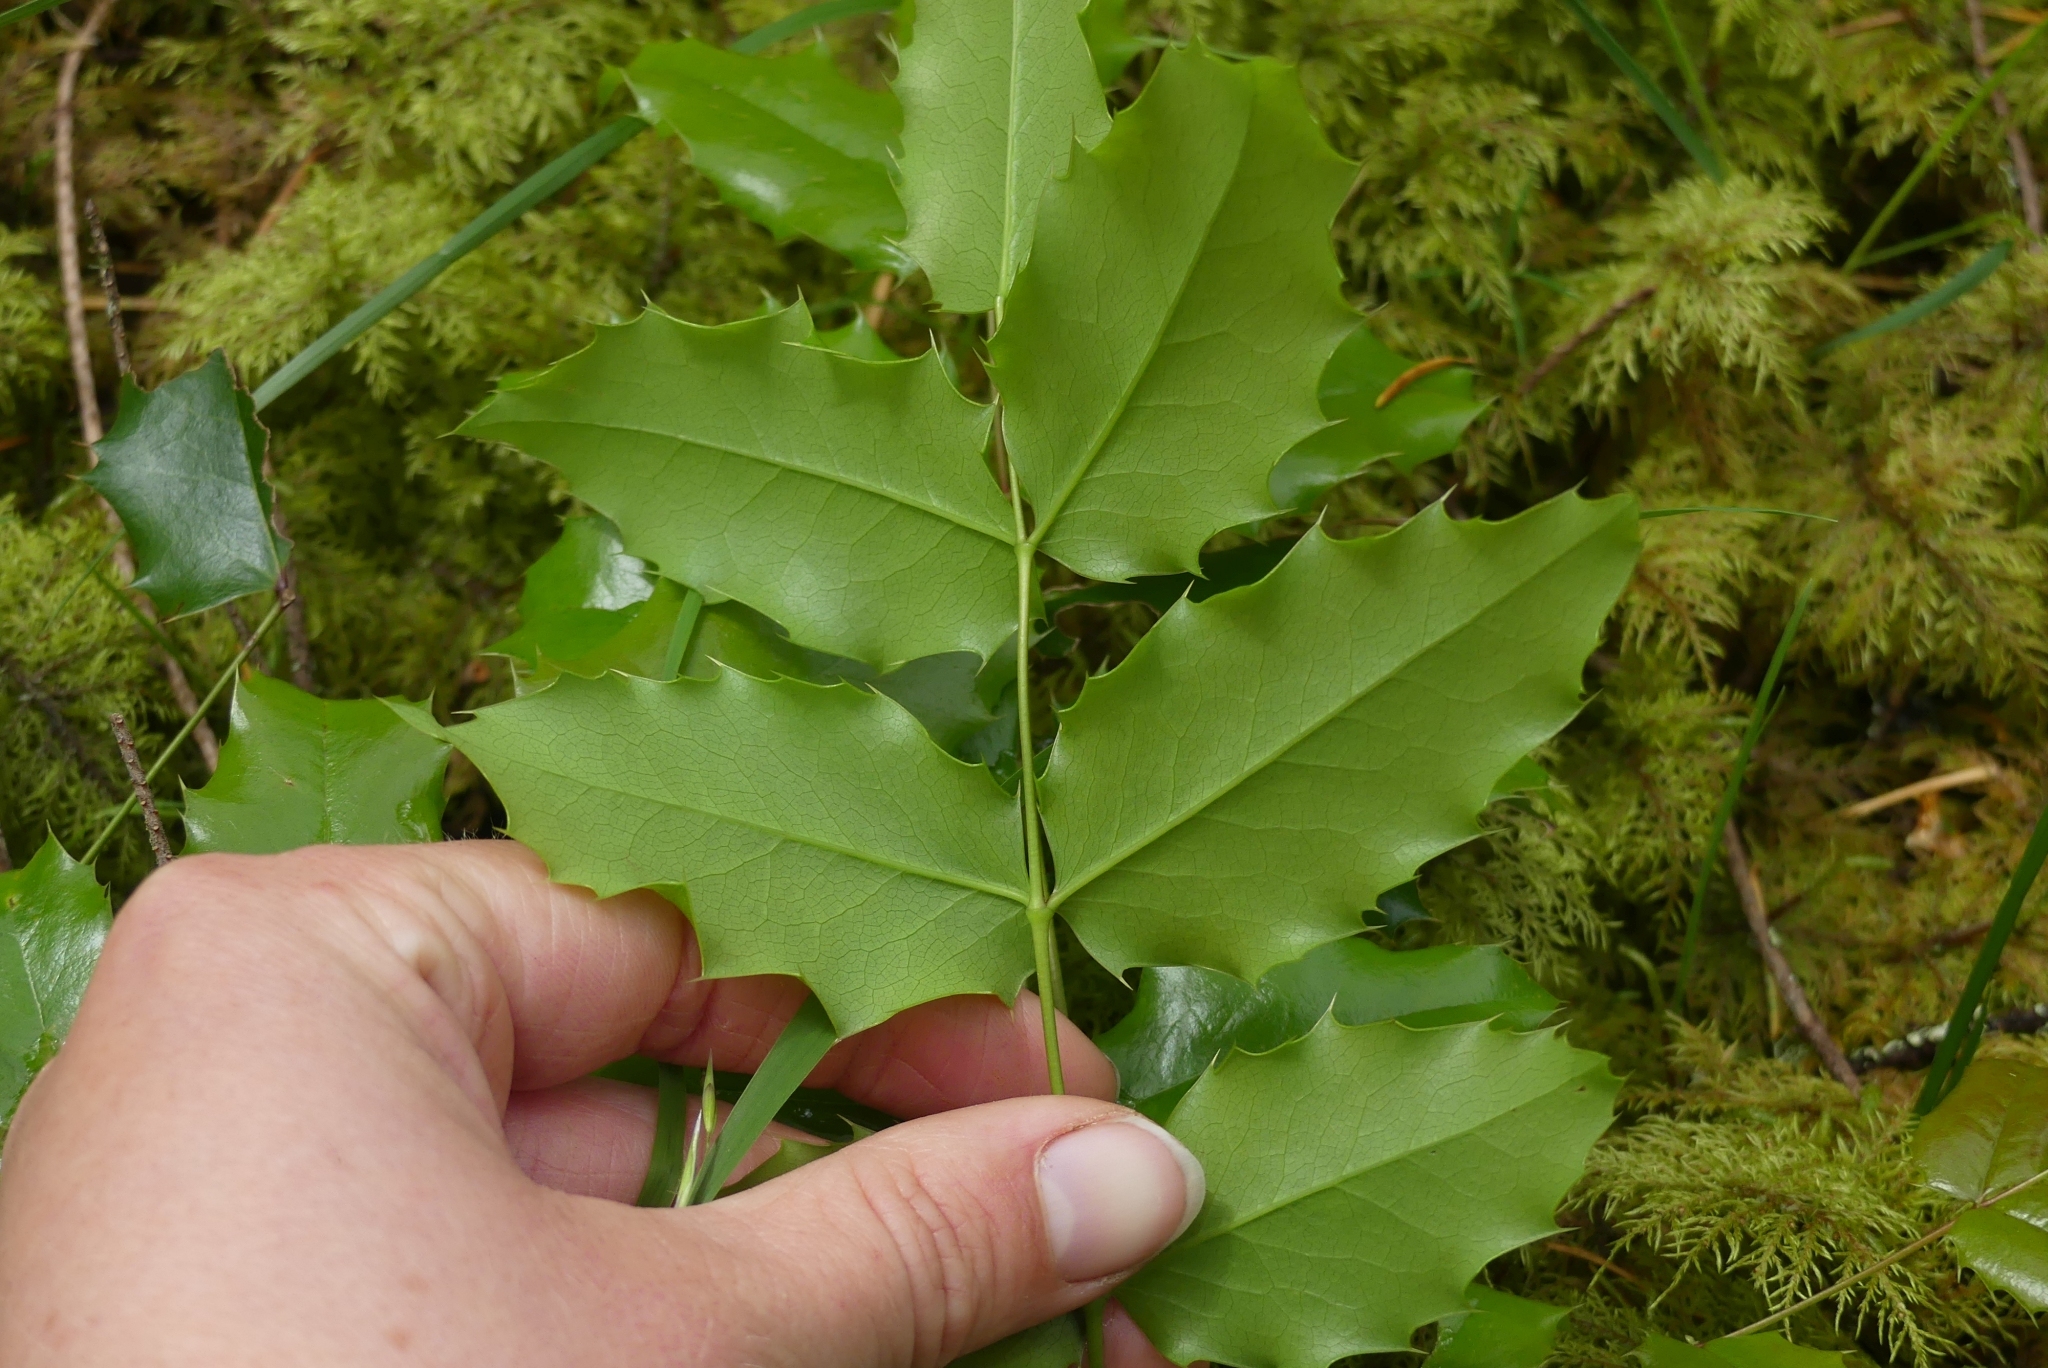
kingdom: Plantae
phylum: Tracheophyta
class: Magnoliopsida
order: Ranunculales
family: Berberidaceae
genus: Mahonia
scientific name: Mahonia aquifolium
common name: Oregon-grape
